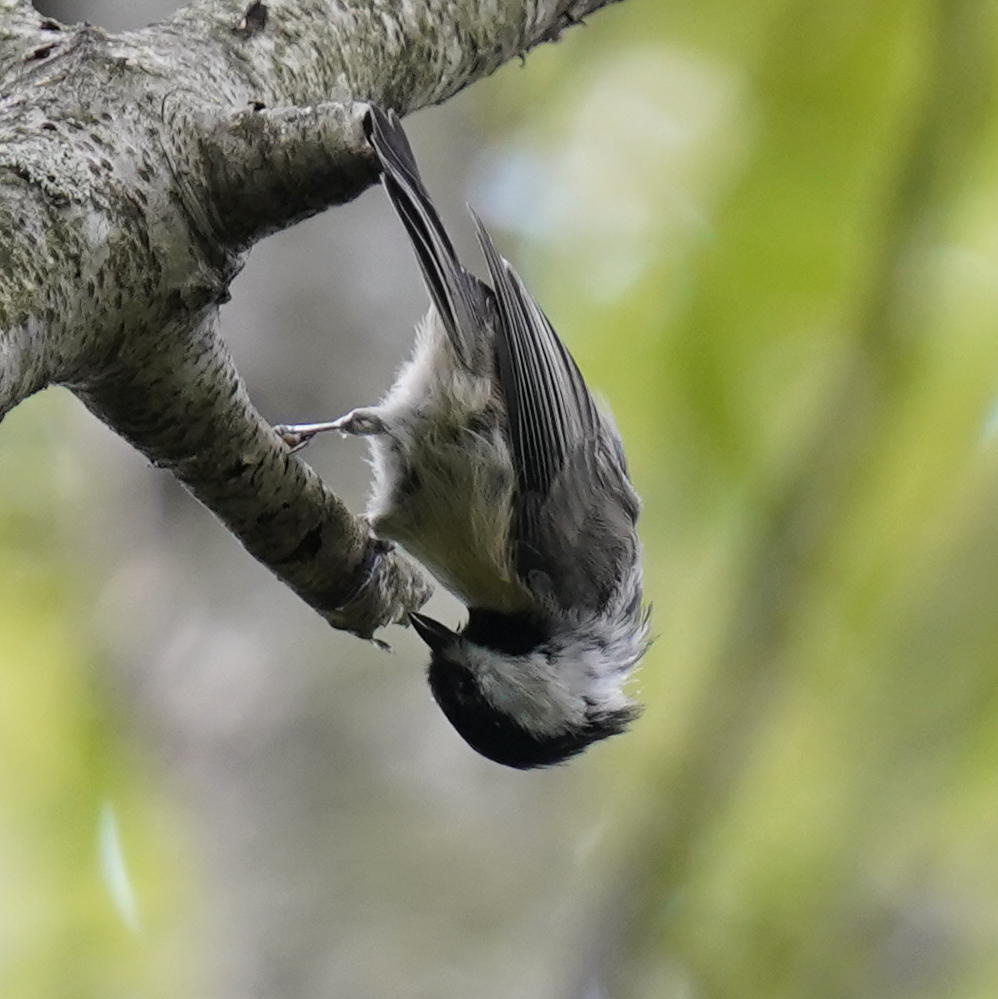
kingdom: Animalia
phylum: Chordata
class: Aves
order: Passeriformes
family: Paridae
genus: Poecile
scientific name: Poecile carolinensis
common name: Carolina chickadee
